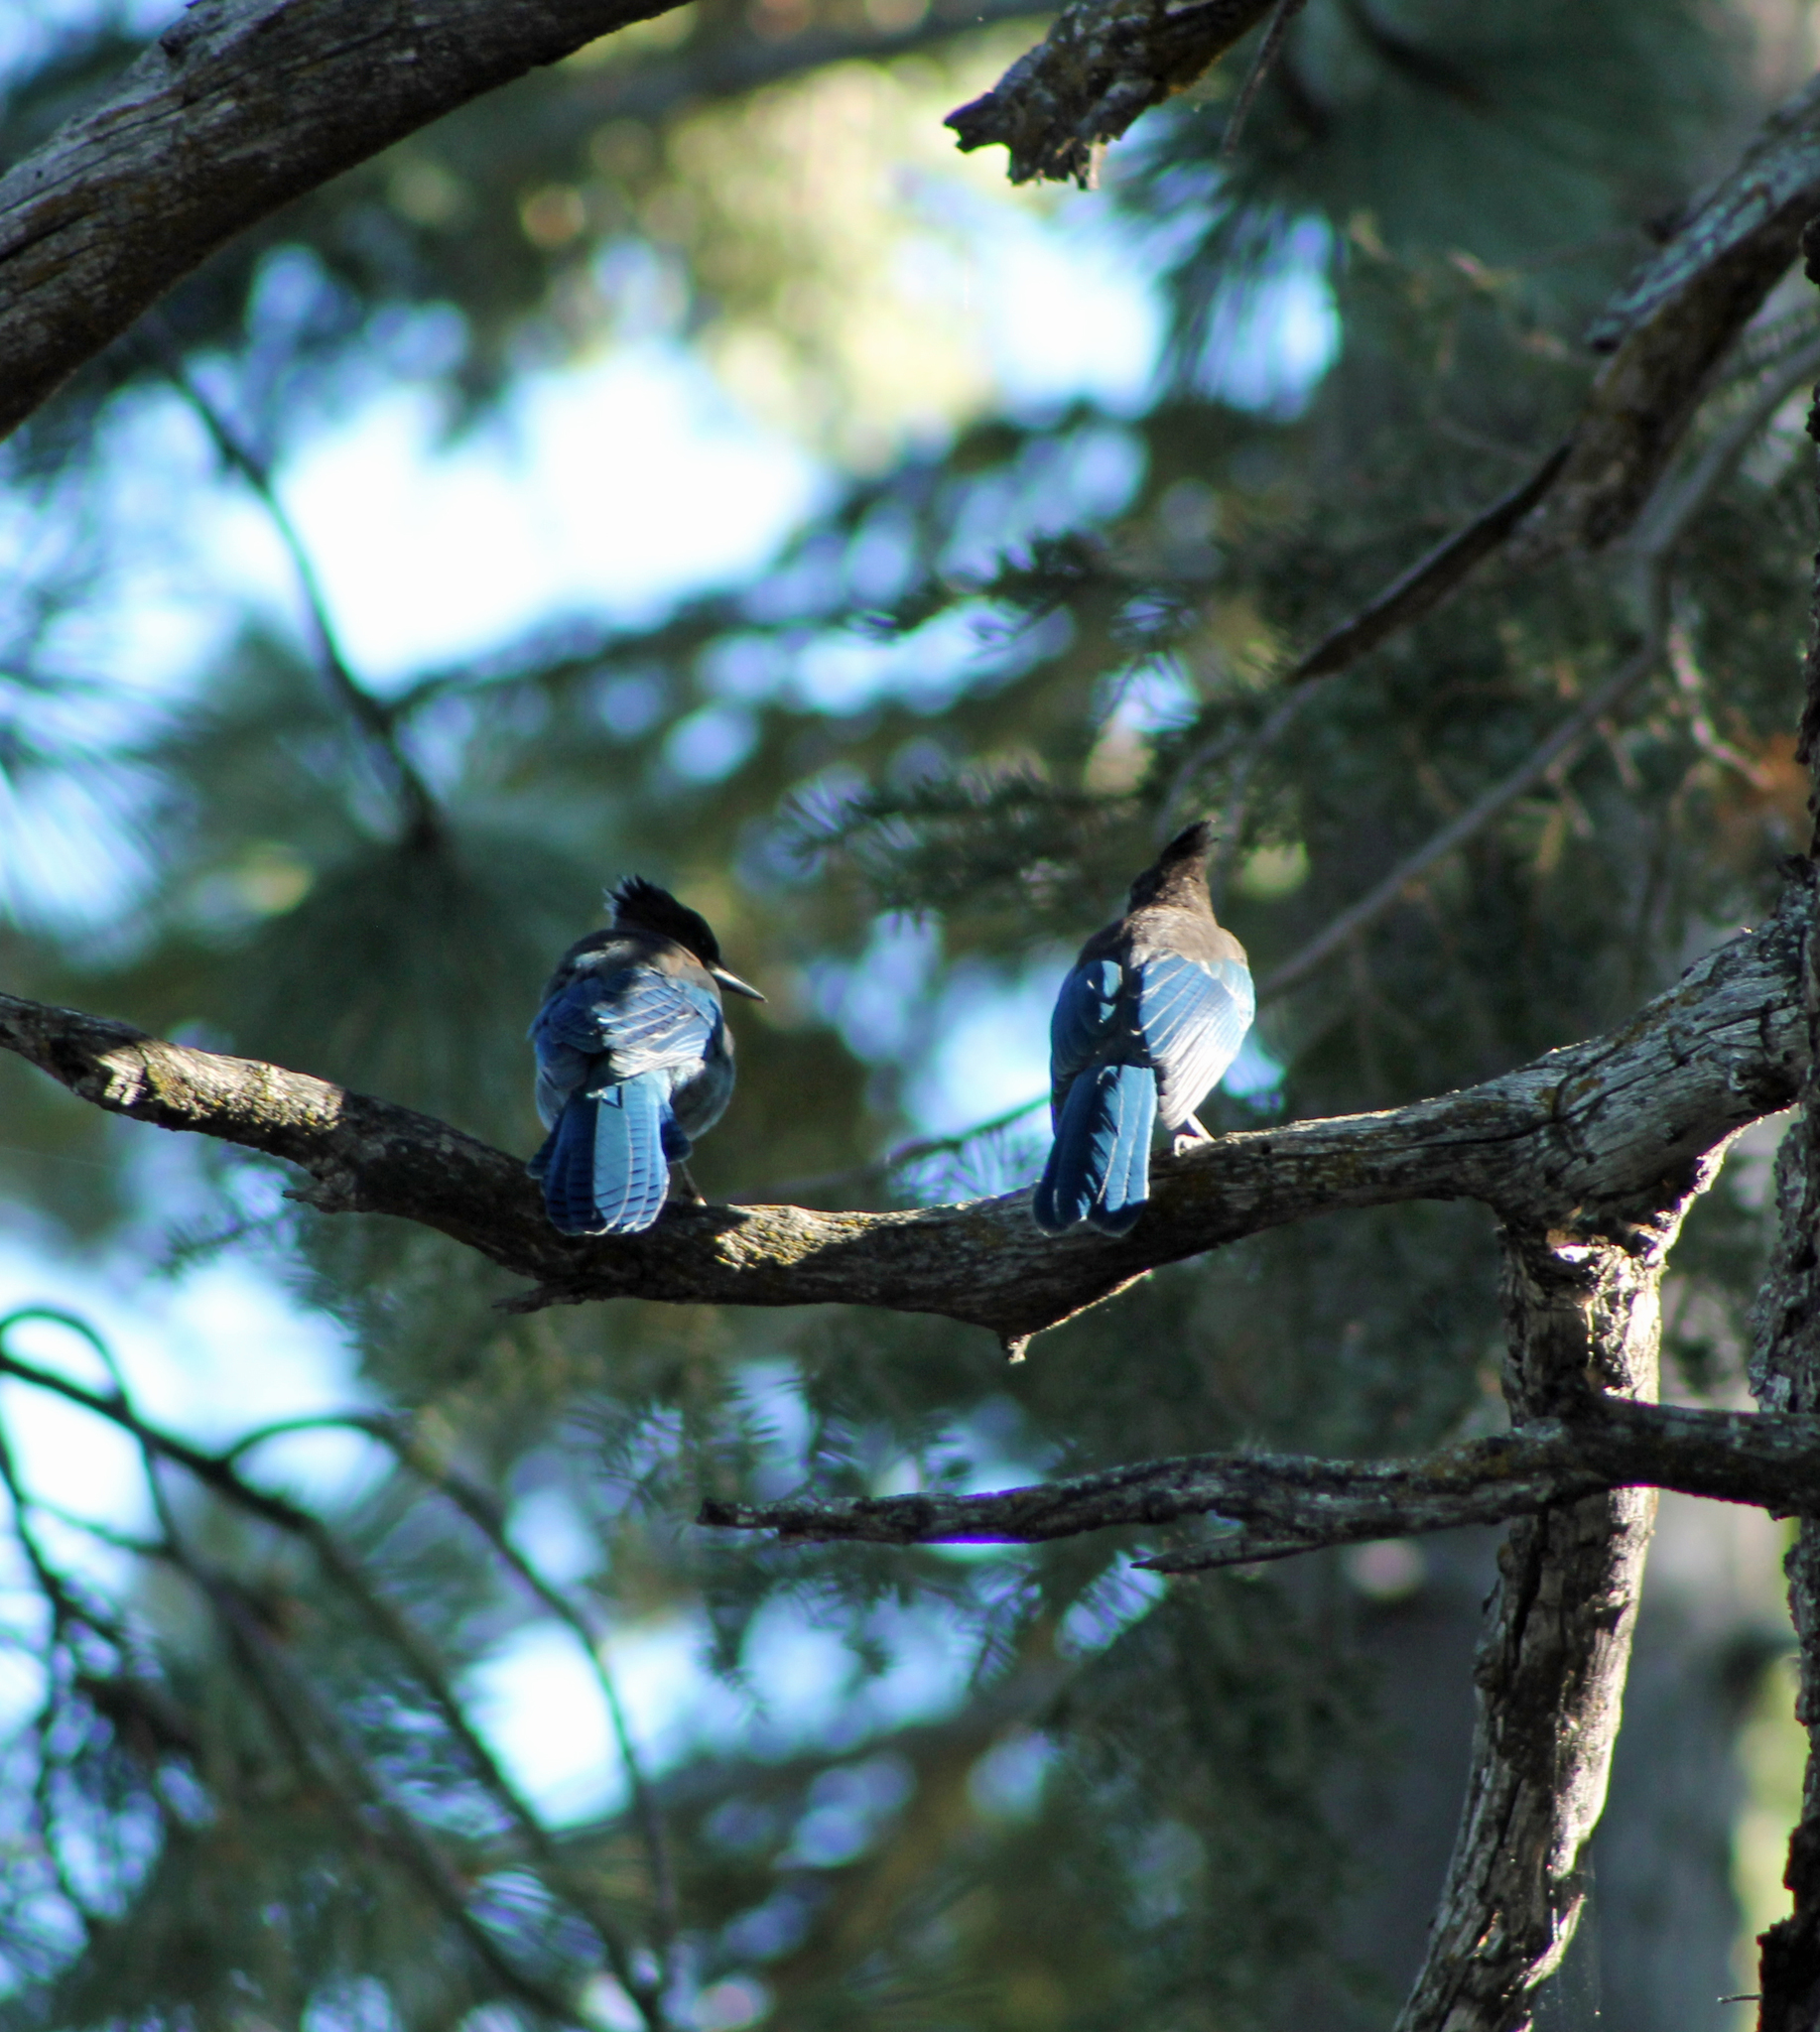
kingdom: Animalia
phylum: Chordata
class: Aves
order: Passeriformes
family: Corvidae
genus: Cyanocitta
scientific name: Cyanocitta stelleri
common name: Steller's jay
